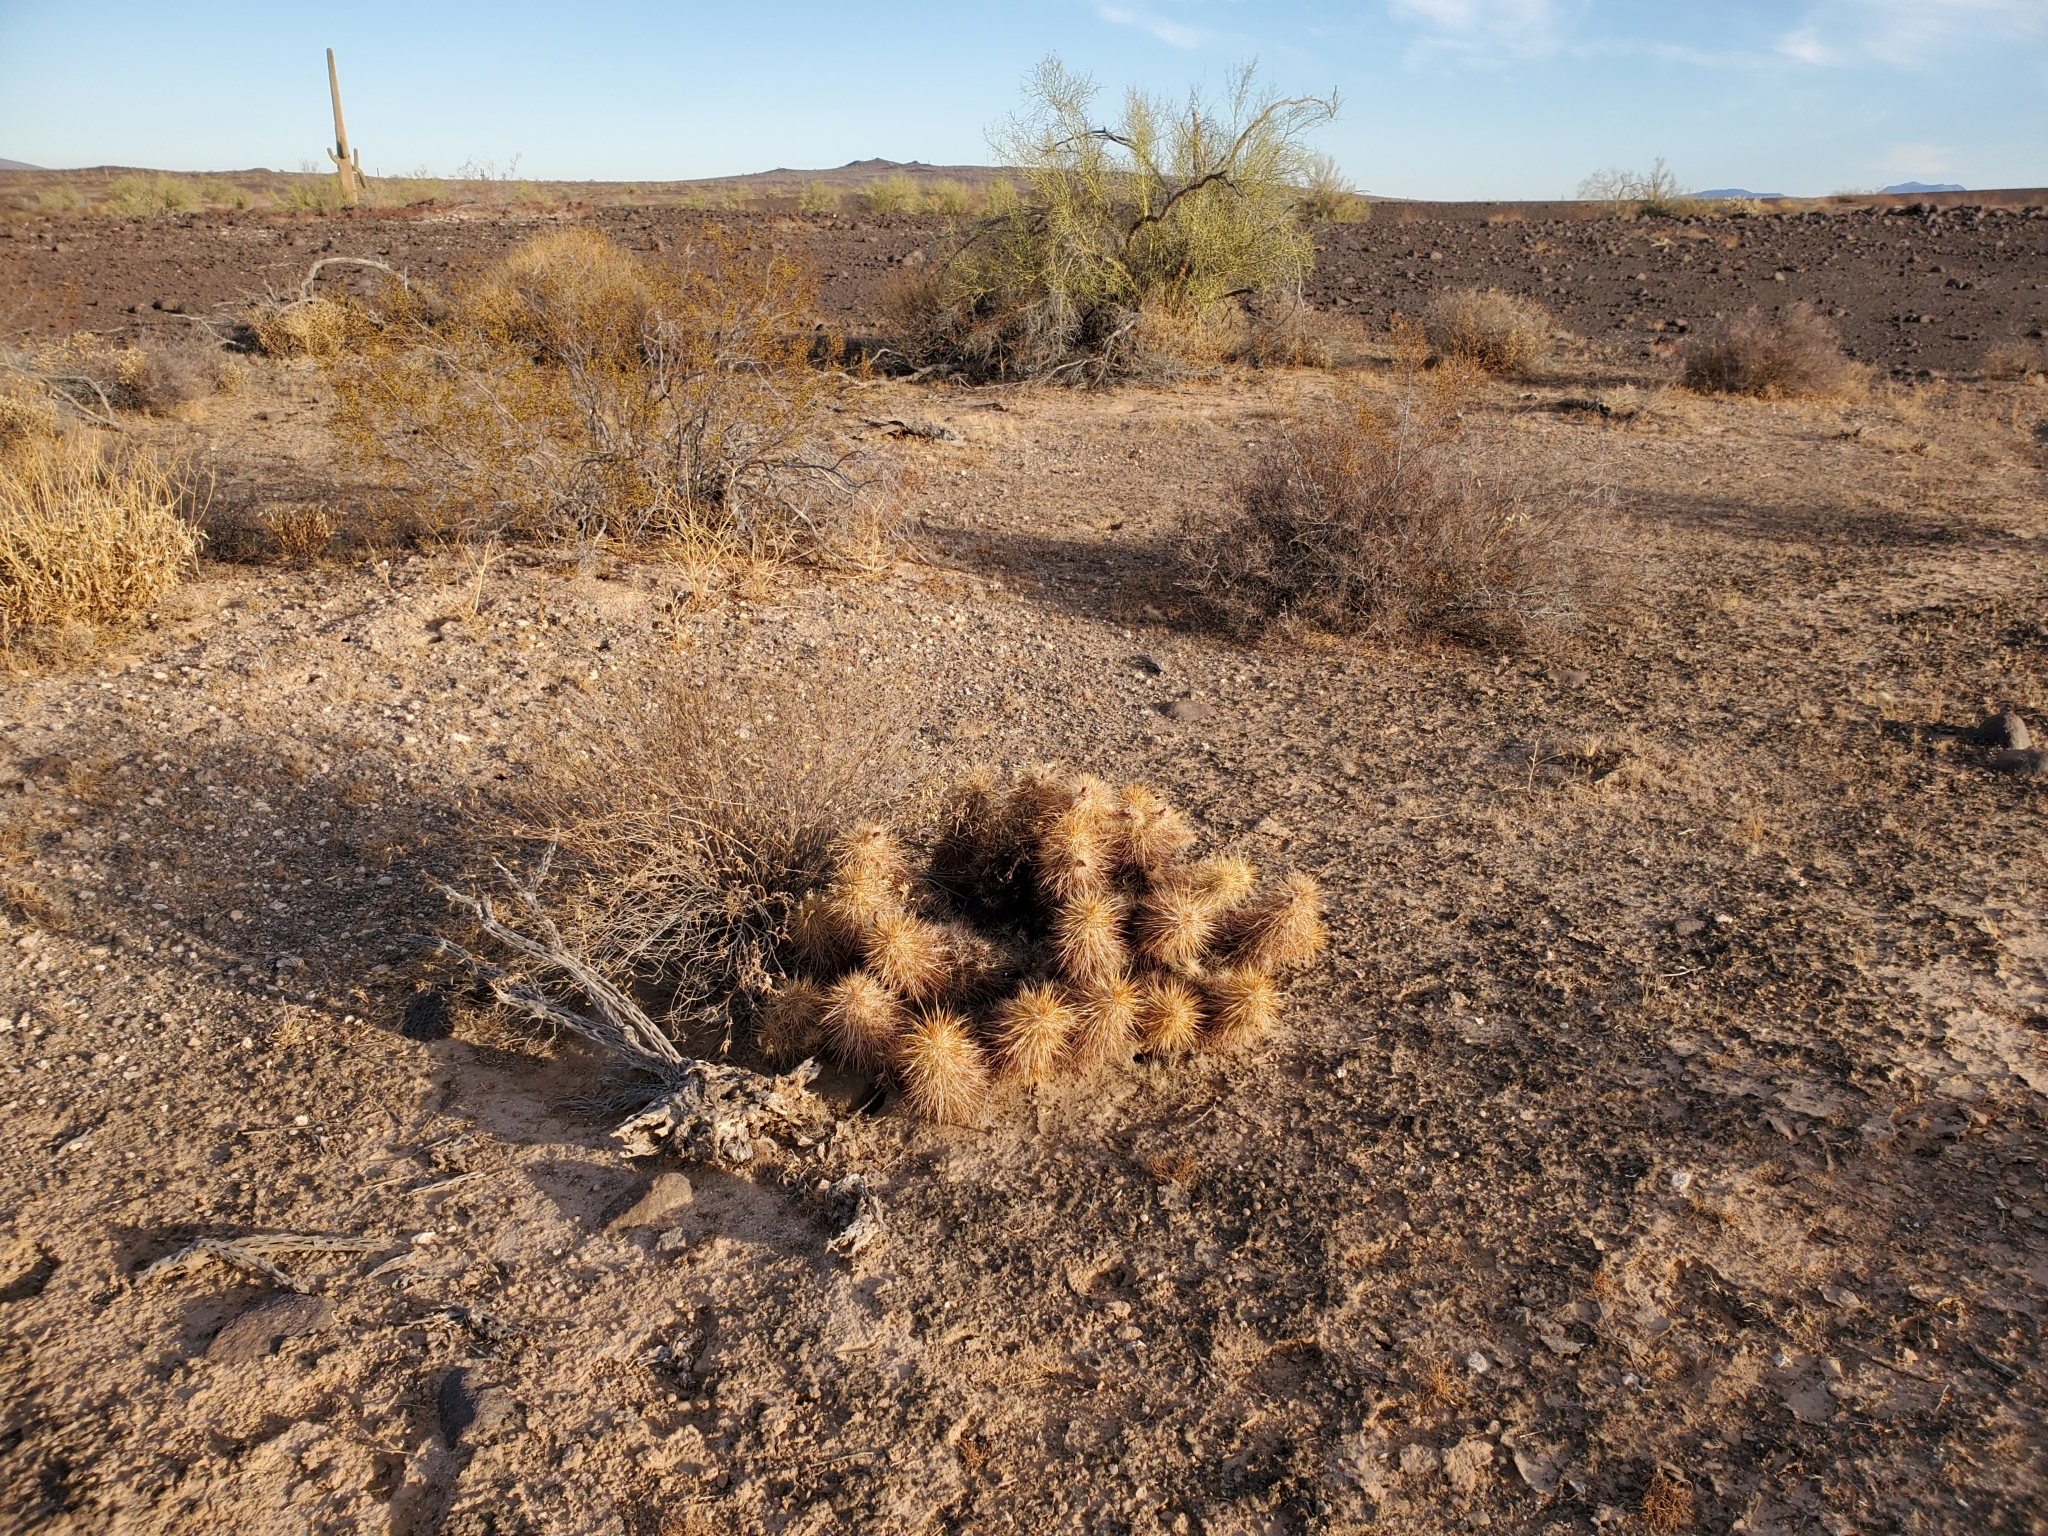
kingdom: Plantae
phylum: Tracheophyta
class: Magnoliopsida
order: Caryophyllales
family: Cactaceae
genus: Echinocereus
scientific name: Echinocereus engelmannii
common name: Engelmann's hedgehog cactus
